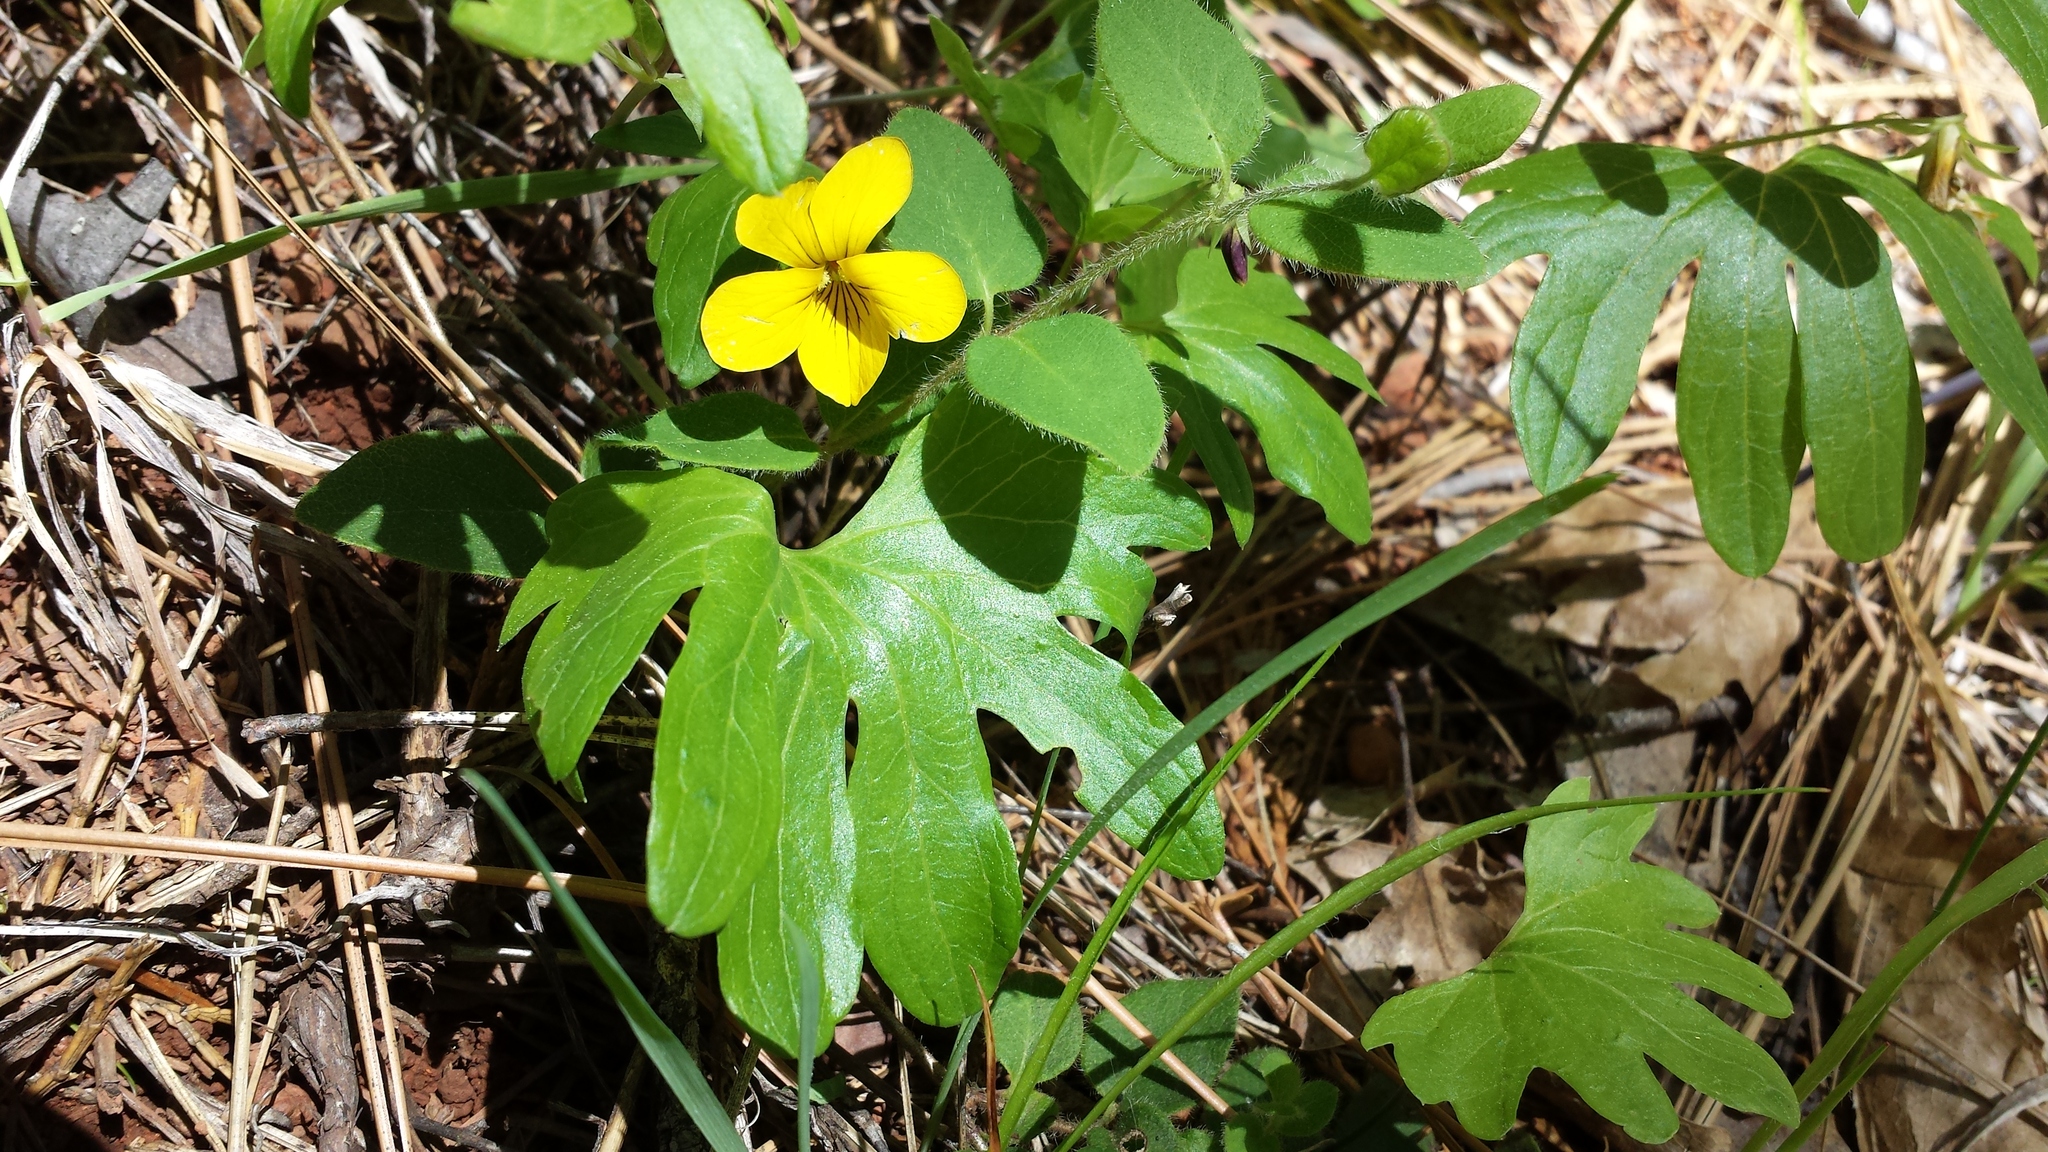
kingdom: Plantae
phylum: Tracheophyta
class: Magnoliopsida
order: Malpighiales
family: Violaceae
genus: Viola
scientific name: Viola lobata
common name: Pine violet
